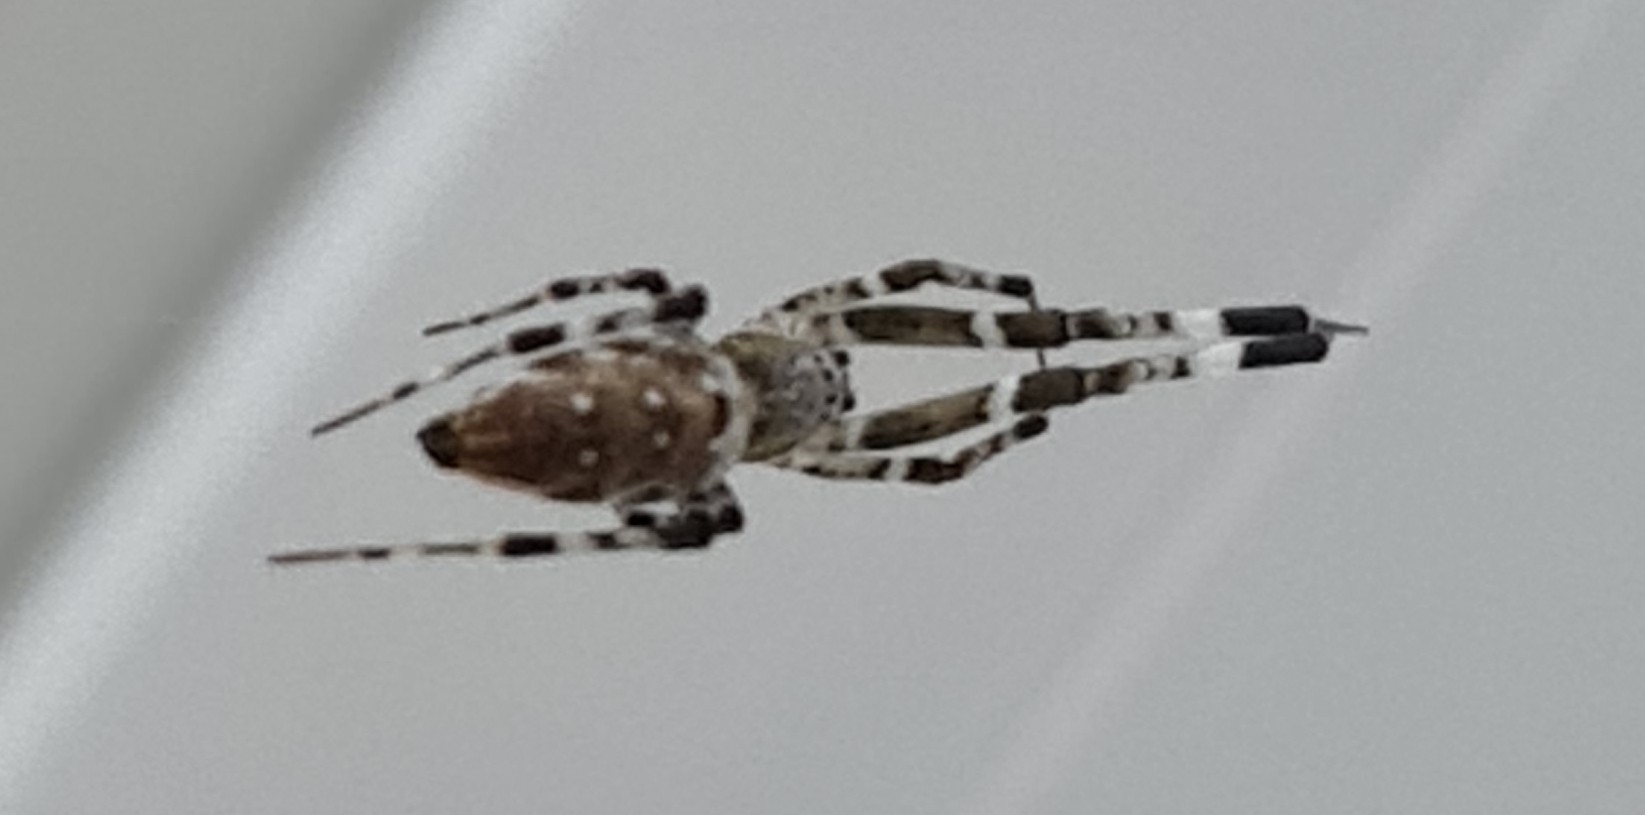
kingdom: Animalia
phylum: Arthropoda
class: Arachnida
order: Araneae
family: Uloboridae
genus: Zosis
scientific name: Zosis geniculata
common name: Hackled orb weavers
